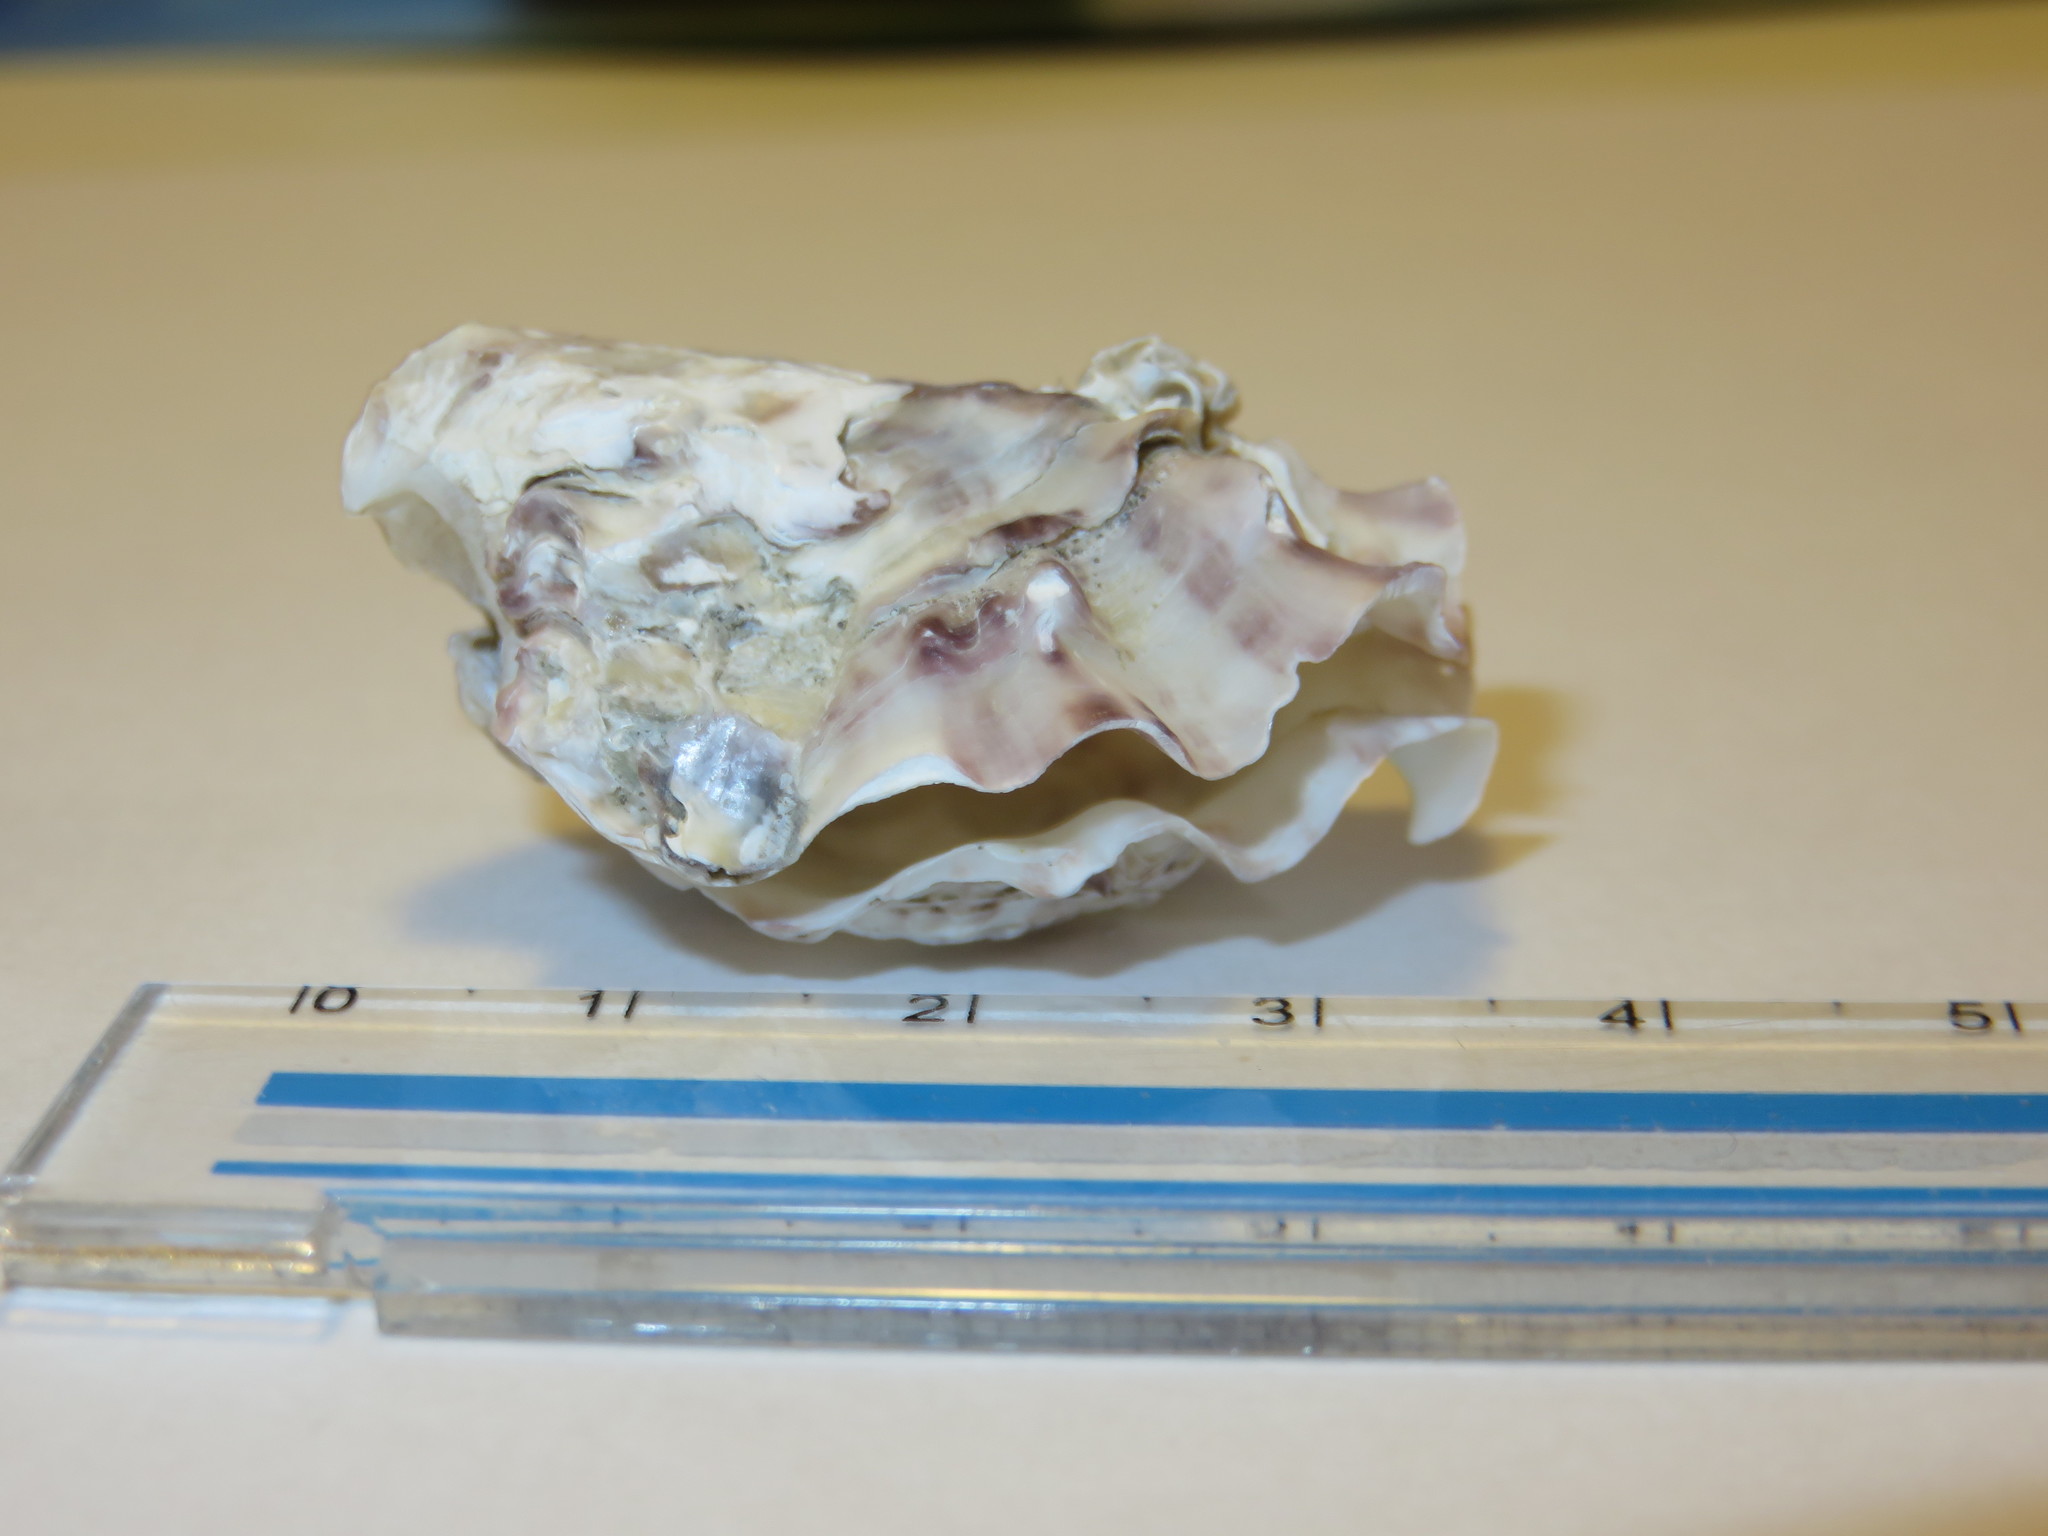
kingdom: Animalia
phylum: Mollusca
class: Bivalvia
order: Ostreida
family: Ostreidae
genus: Magallana
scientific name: Magallana gigas
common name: Pacific oyster
